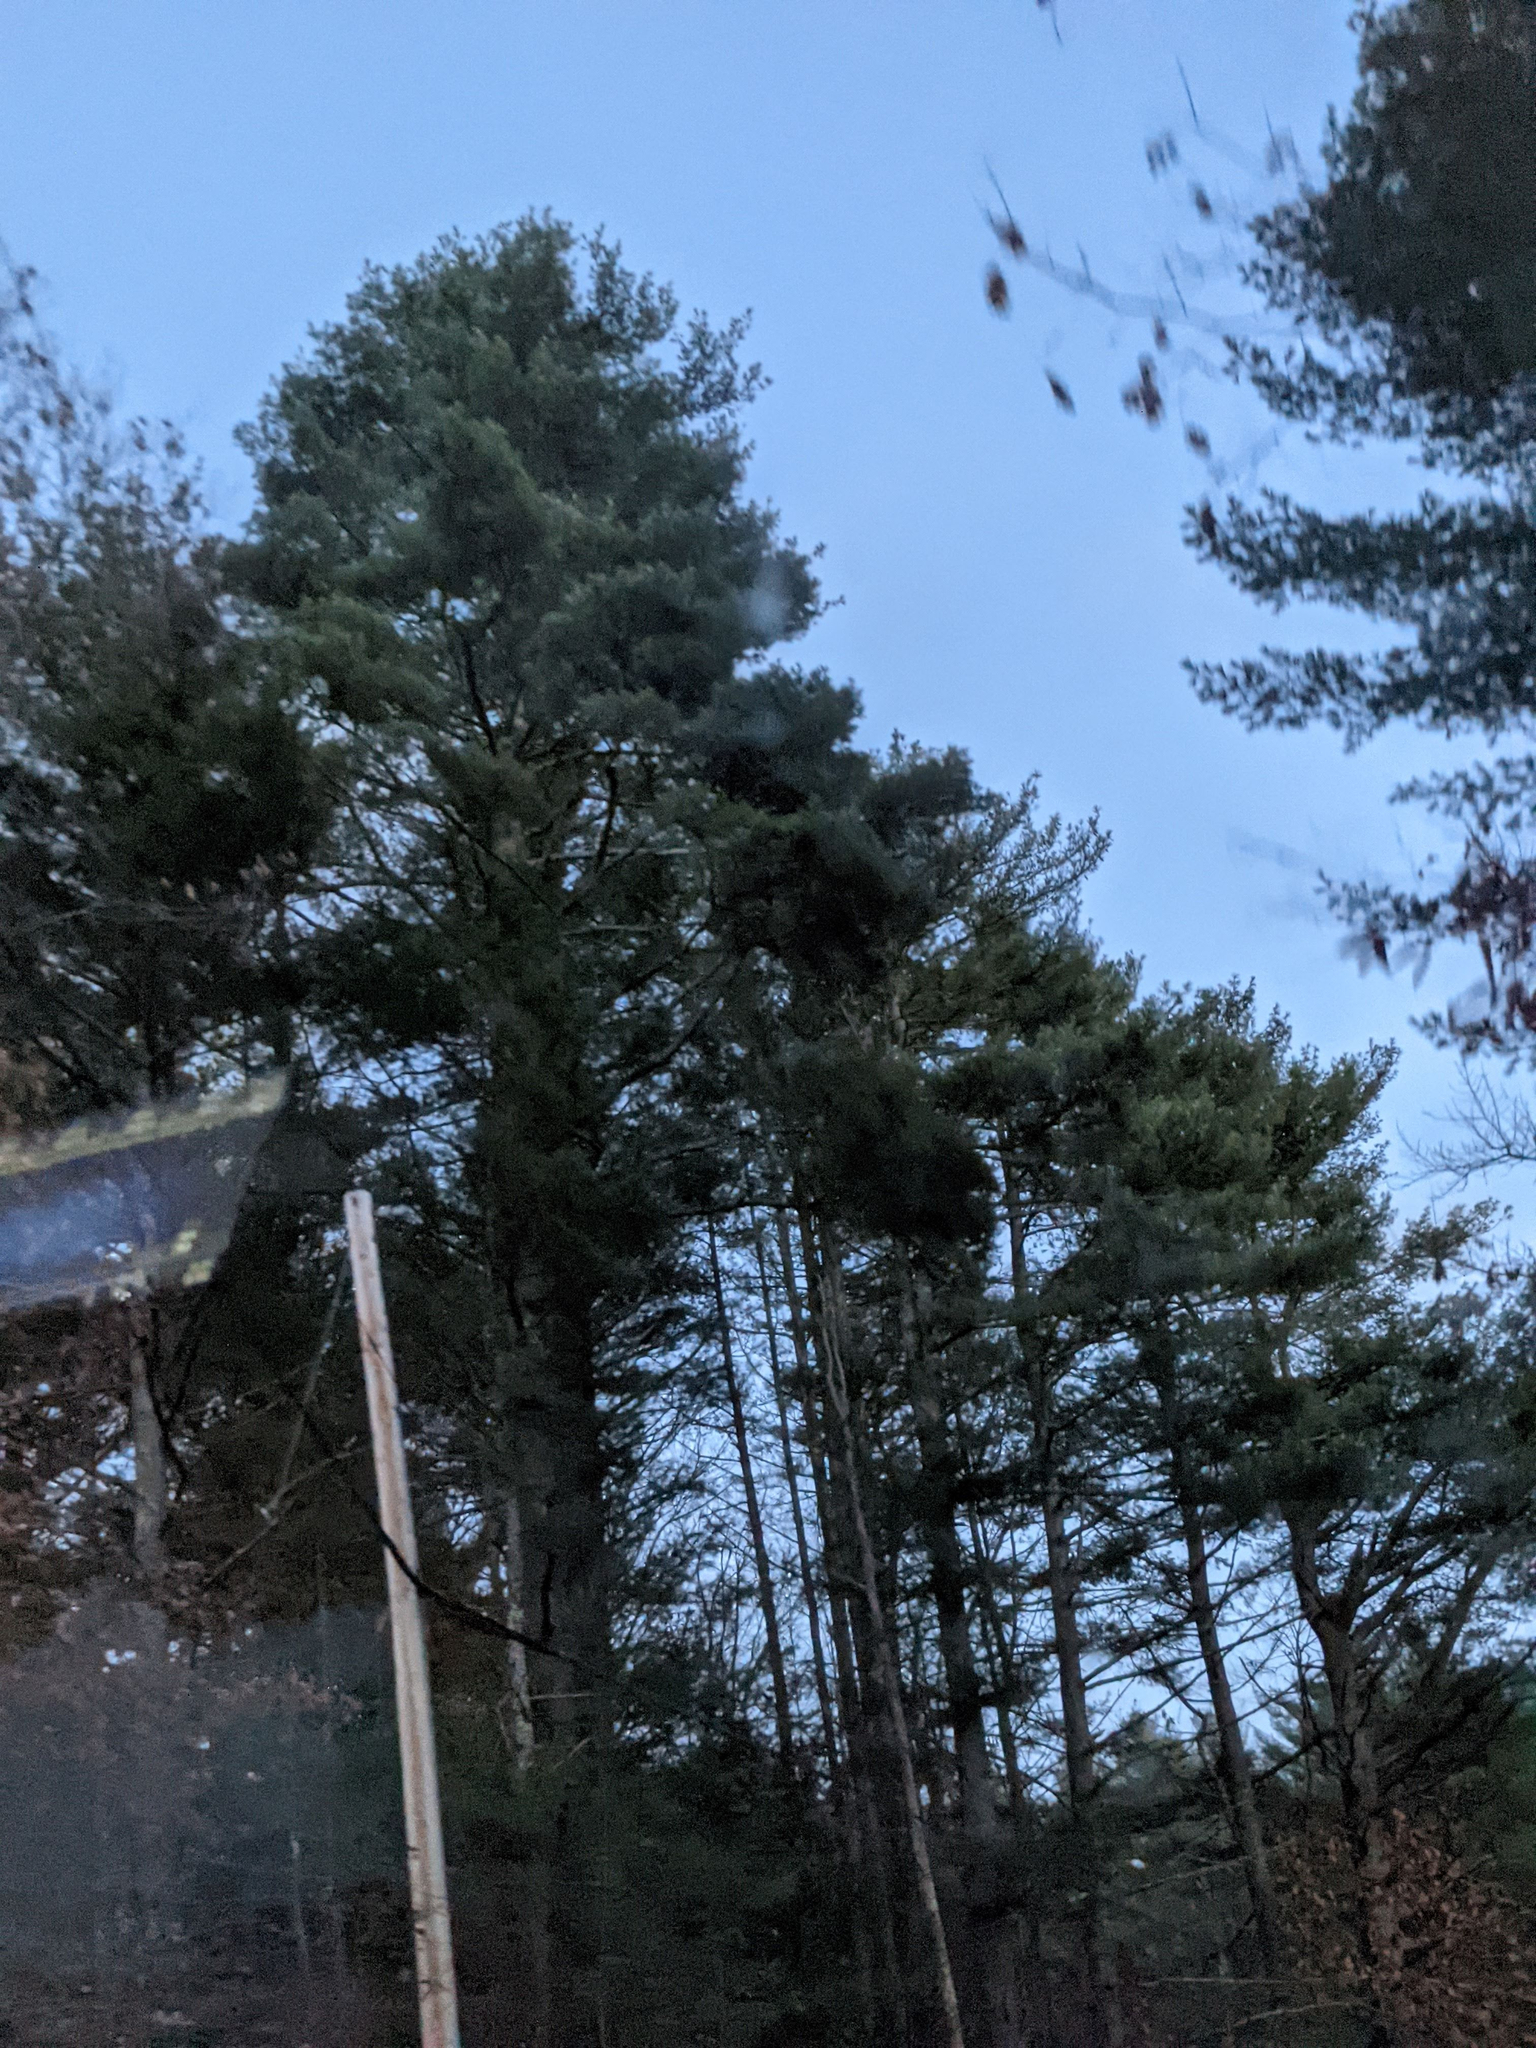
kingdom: Plantae
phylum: Tracheophyta
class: Pinopsida
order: Pinales
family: Pinaceae
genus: Pinus
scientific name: Pinus strobus
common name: Weymouth pine
